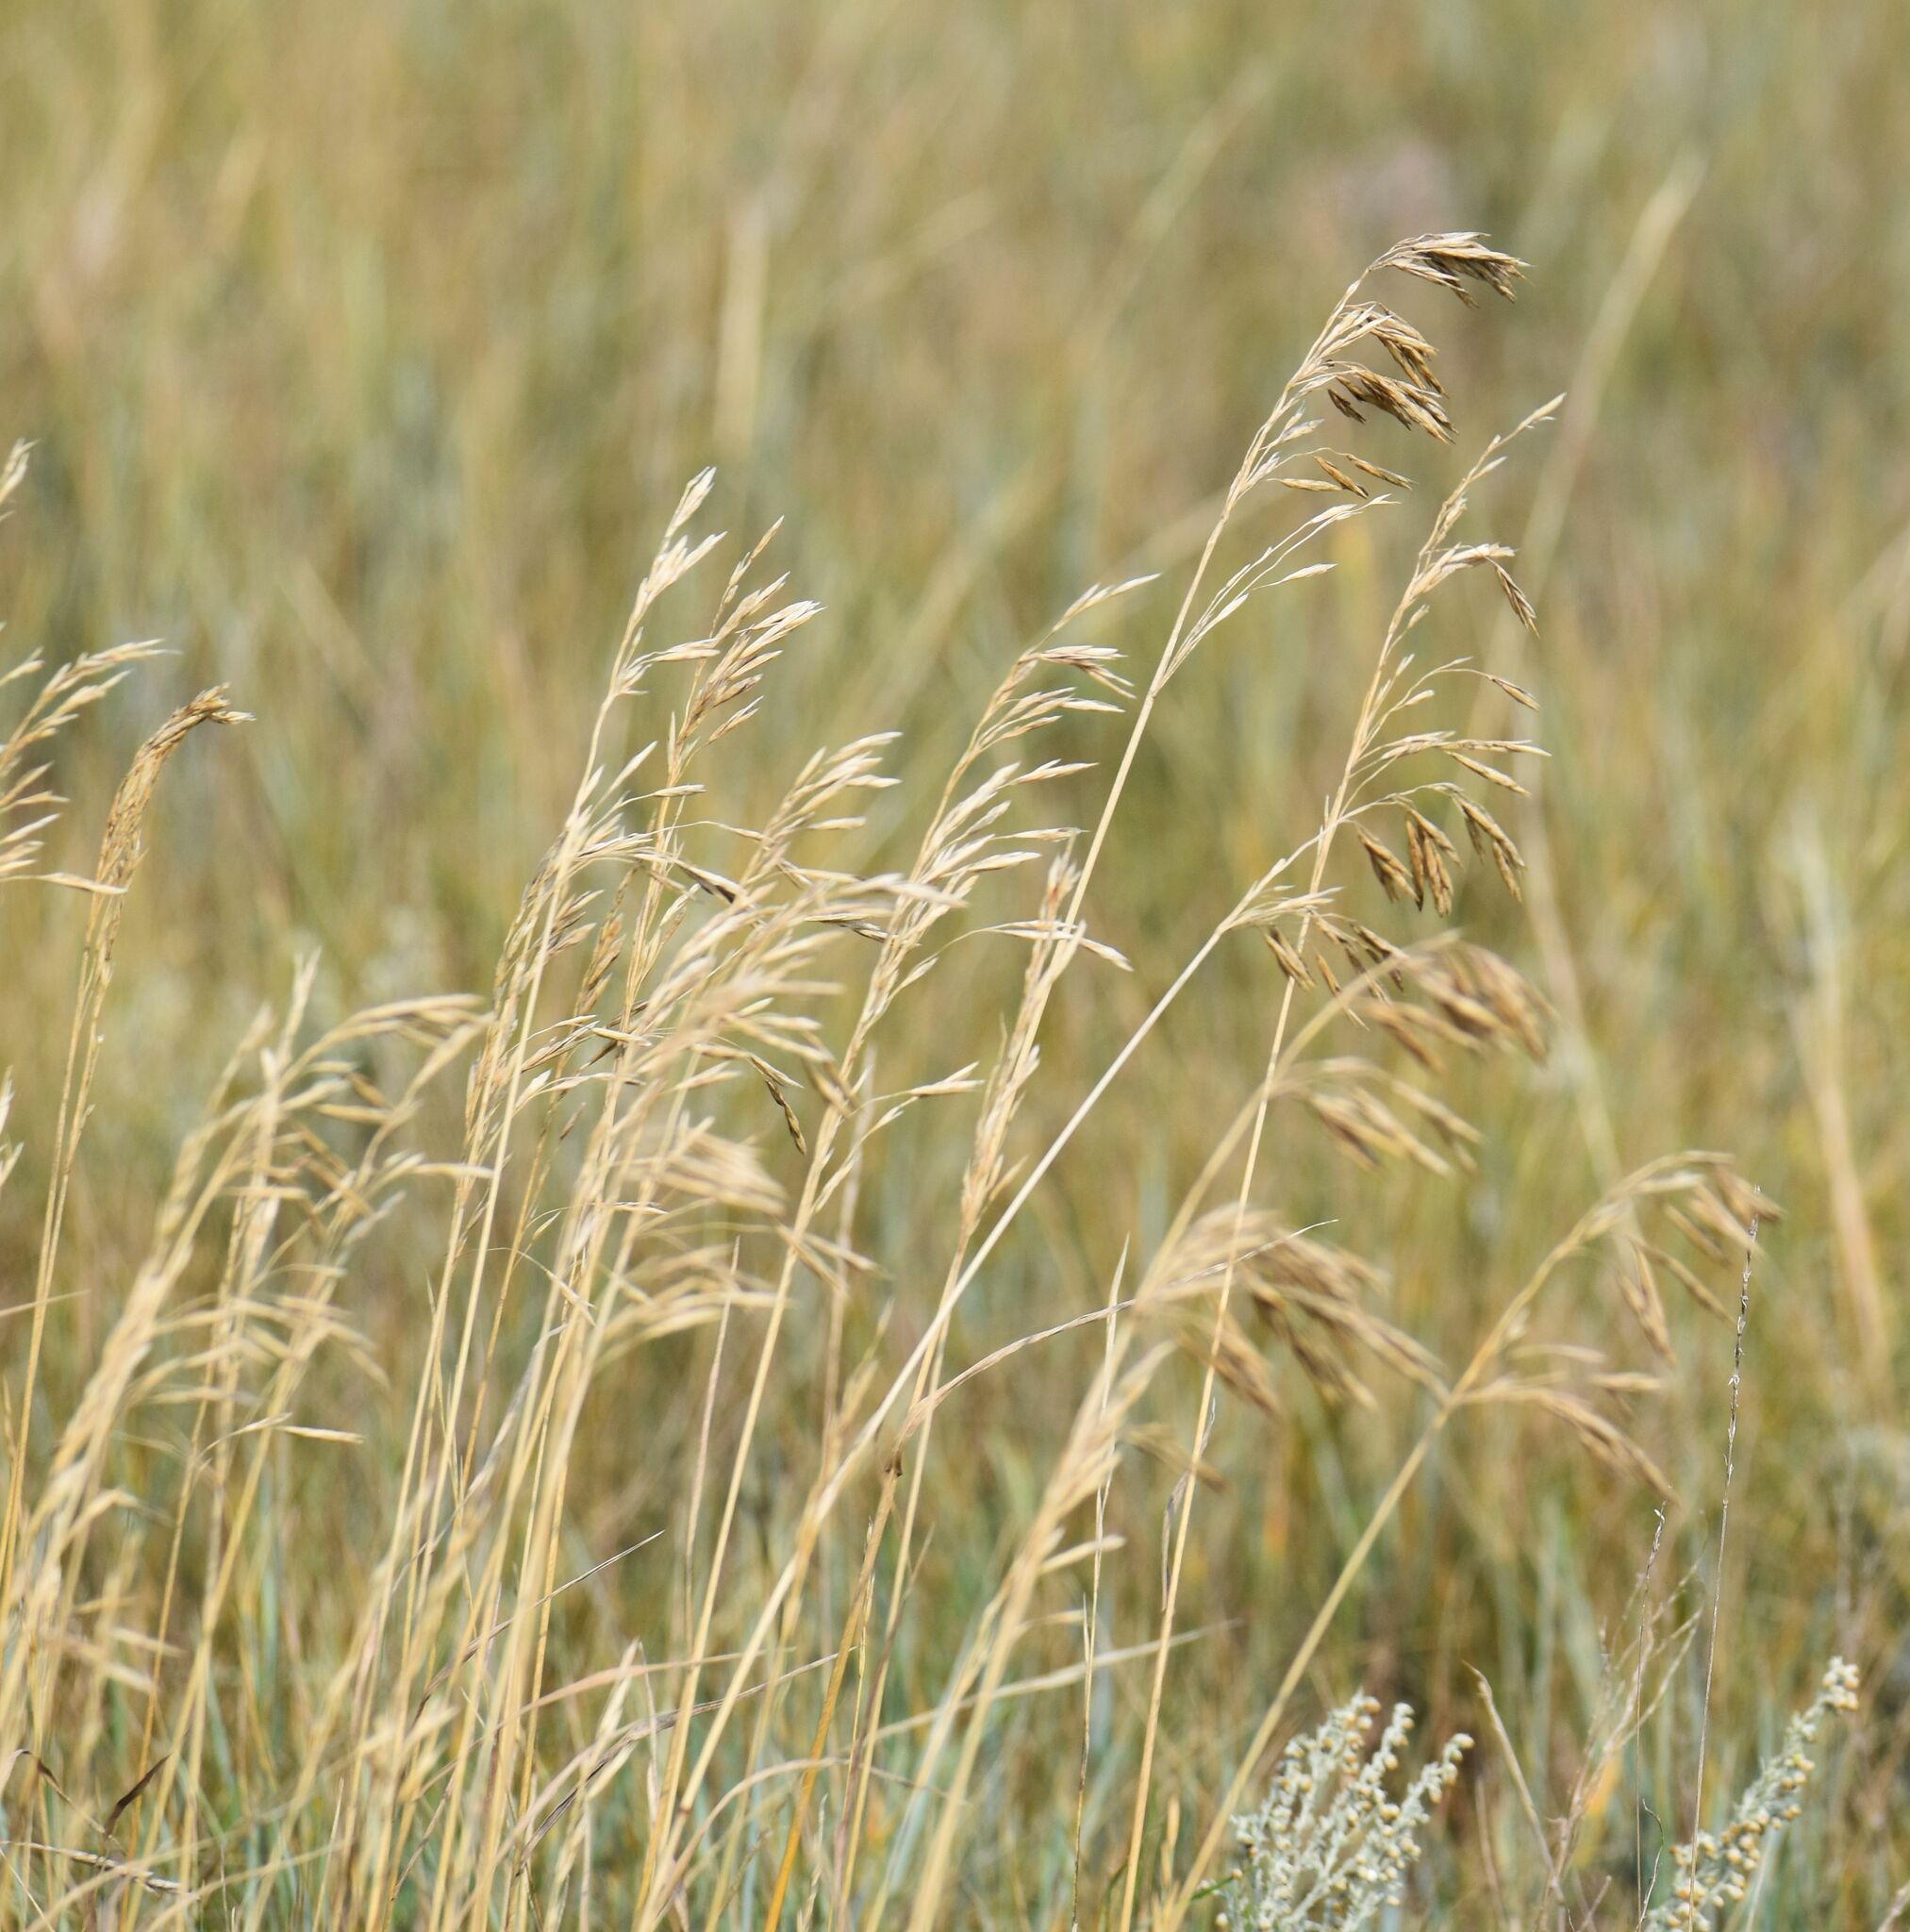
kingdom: Plantae
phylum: Tracheophyta
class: Liliopsida
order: Poales
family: Poaceae
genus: Bromus
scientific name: Bromus inermis
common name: Smooth brome
